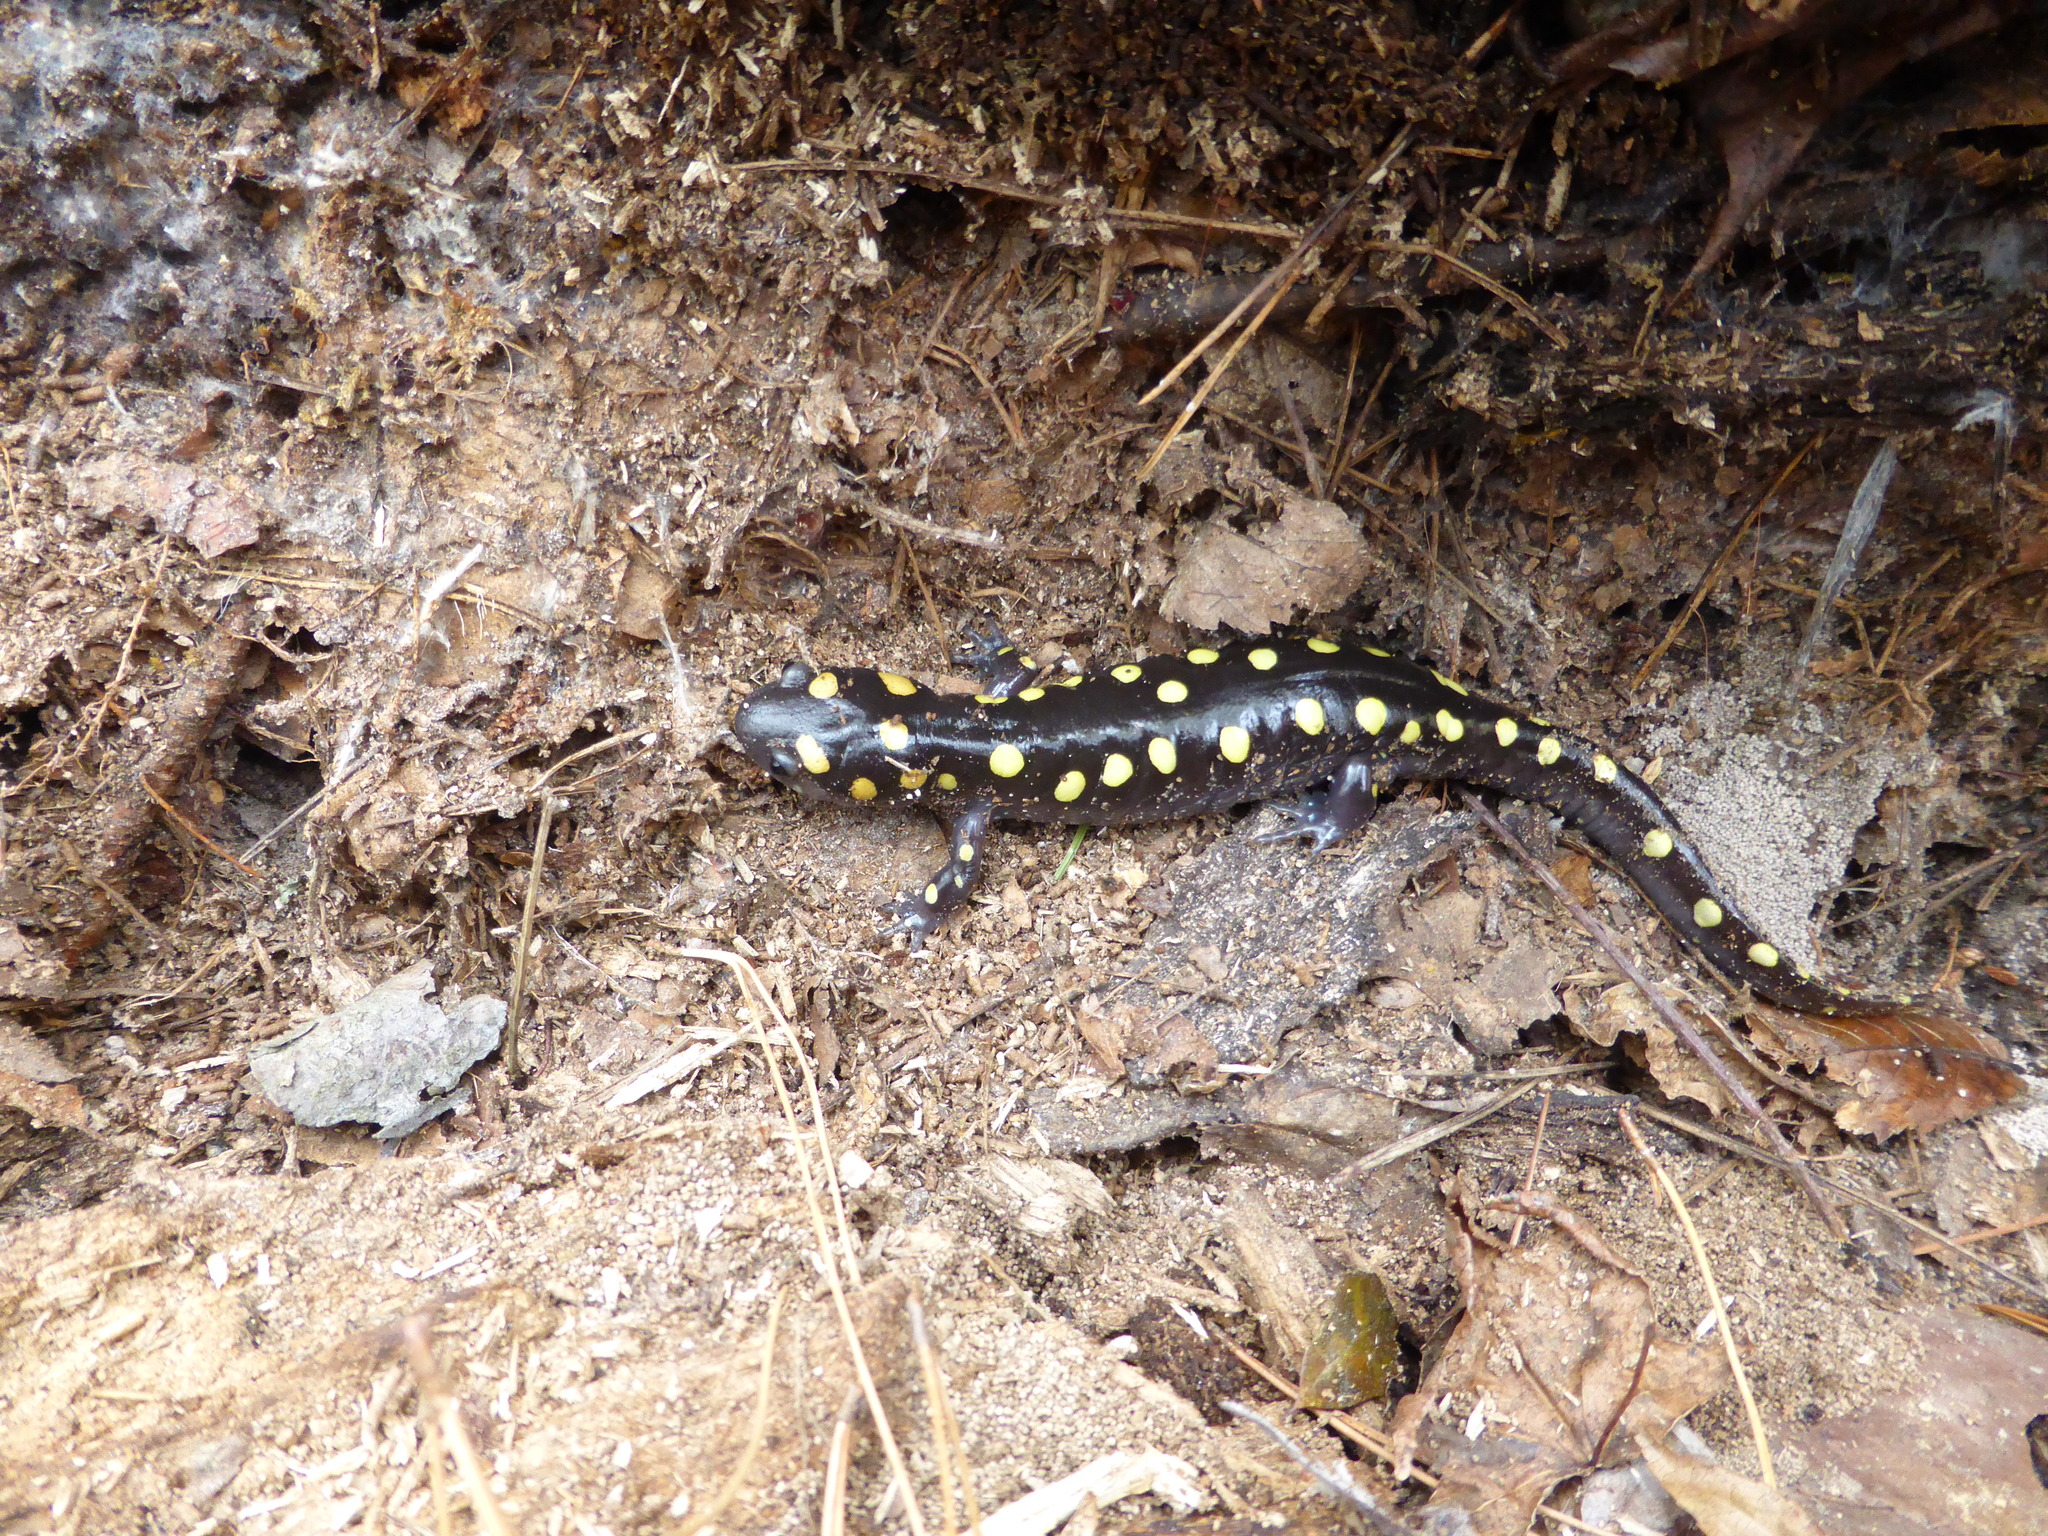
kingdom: Animalia
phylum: Chordata
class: Amphibia
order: Caudata
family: Ambystomatidae
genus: Ambystoma
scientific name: Ambystoma maculatum
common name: Spotted salamander
